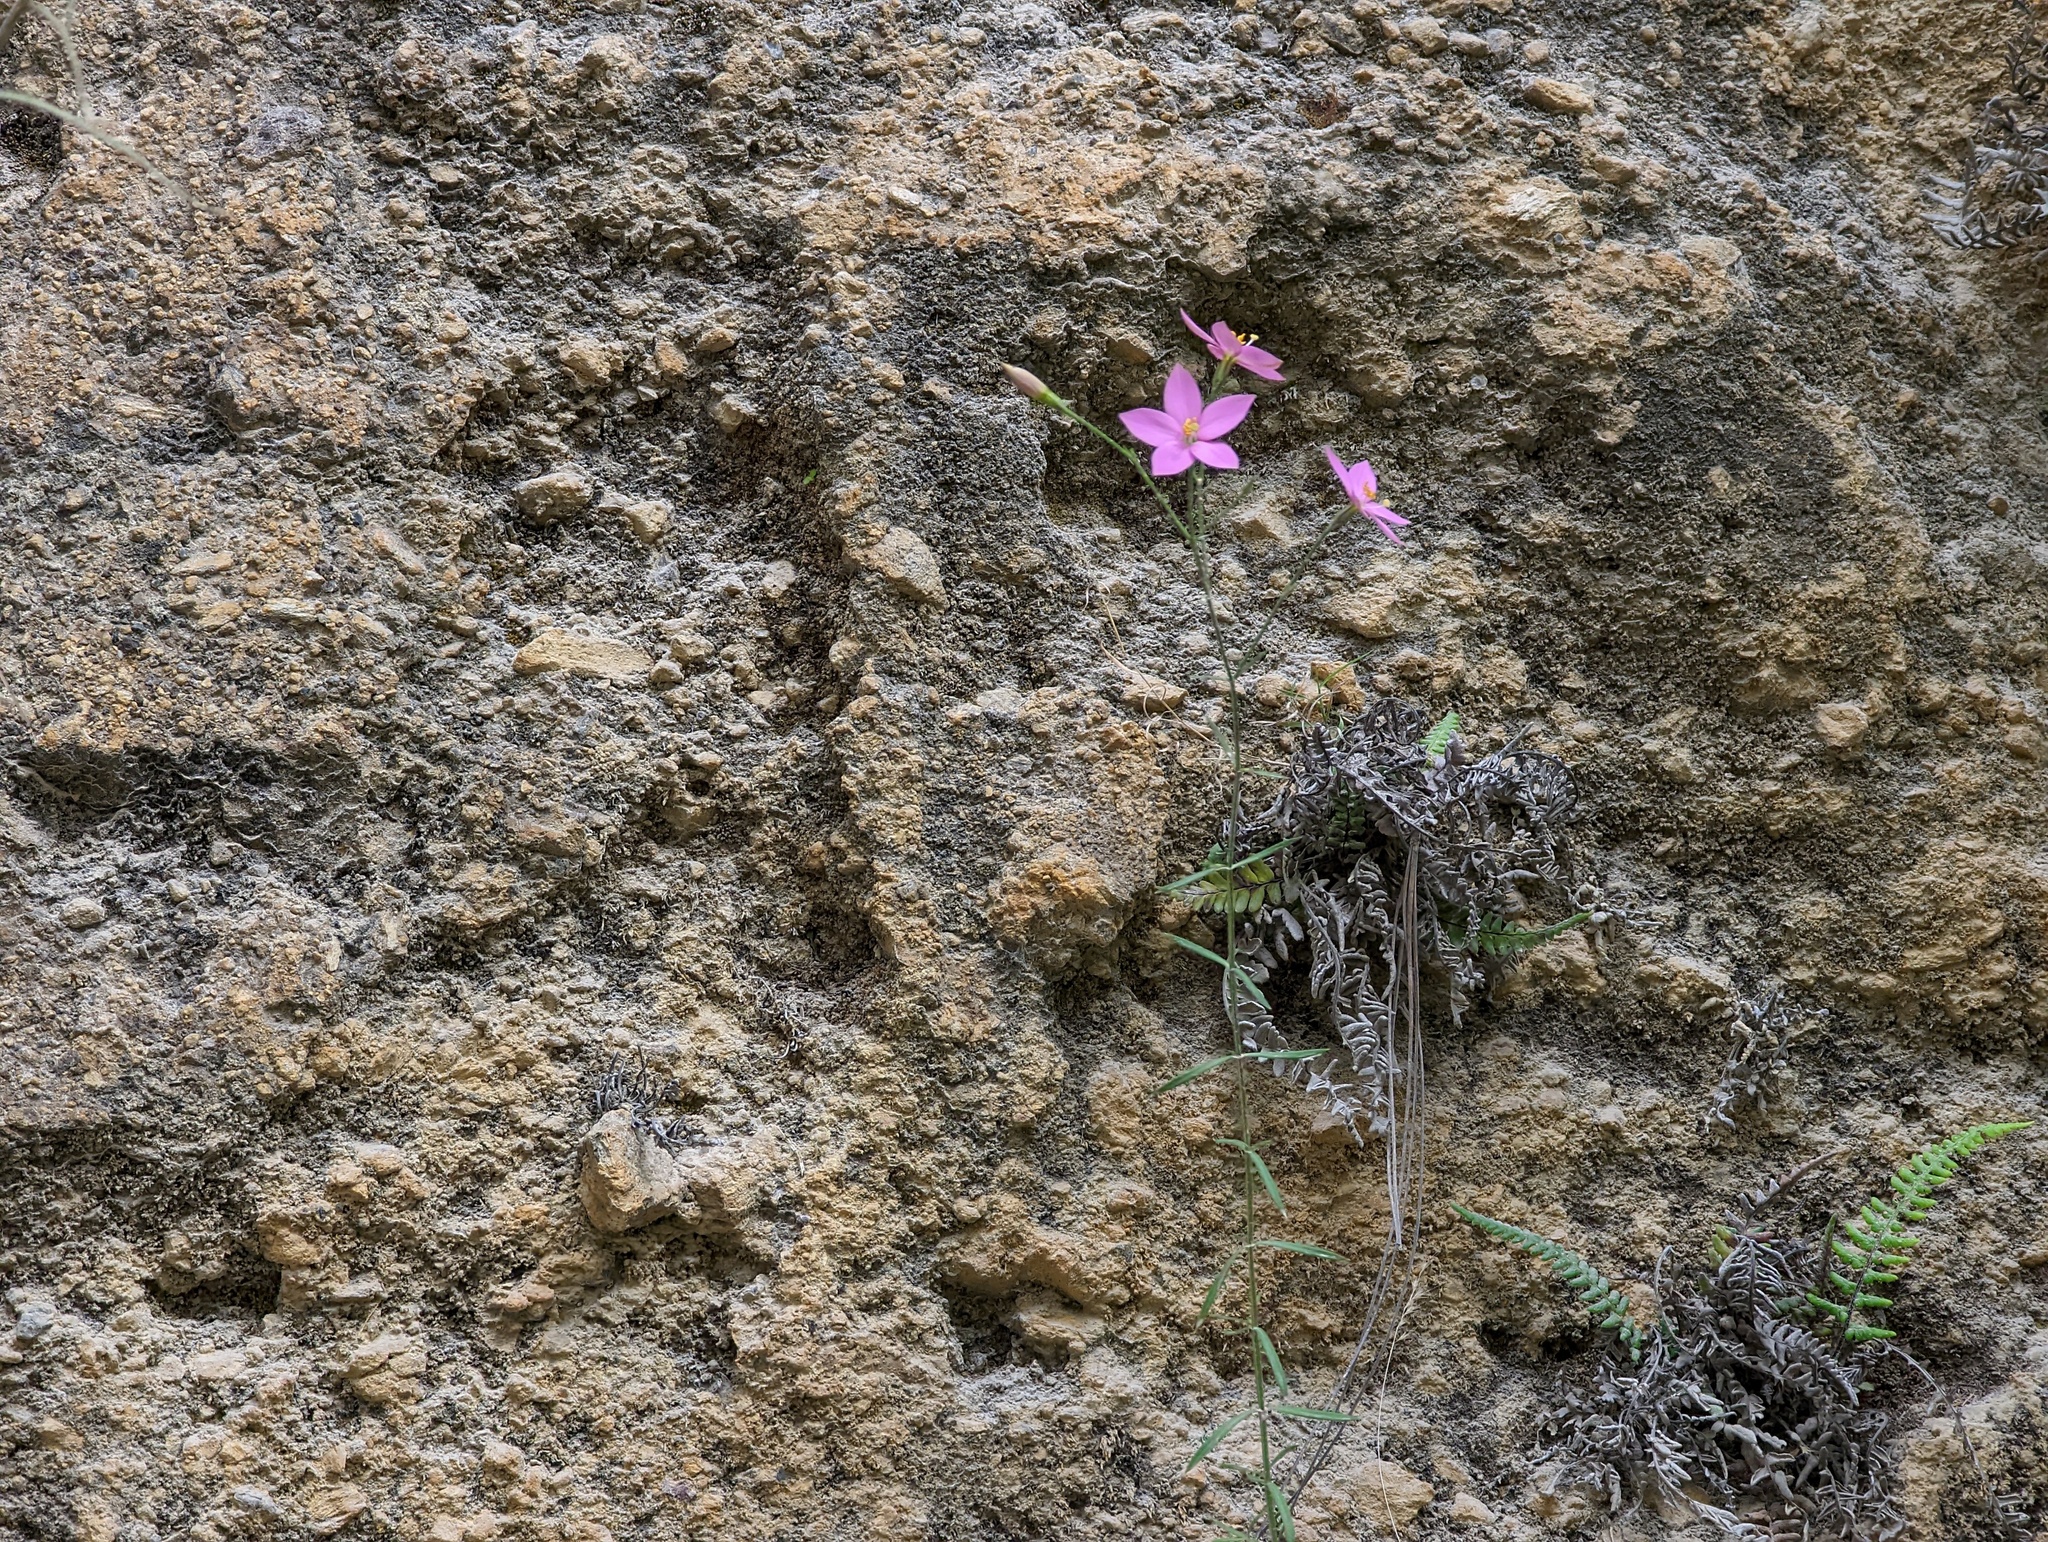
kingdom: Plantae
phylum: Tracheophyta
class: Magnoliopsida
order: Gentianales
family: Gentianaceae
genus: Gyrandra
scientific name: Gyrandra tenuifolia
